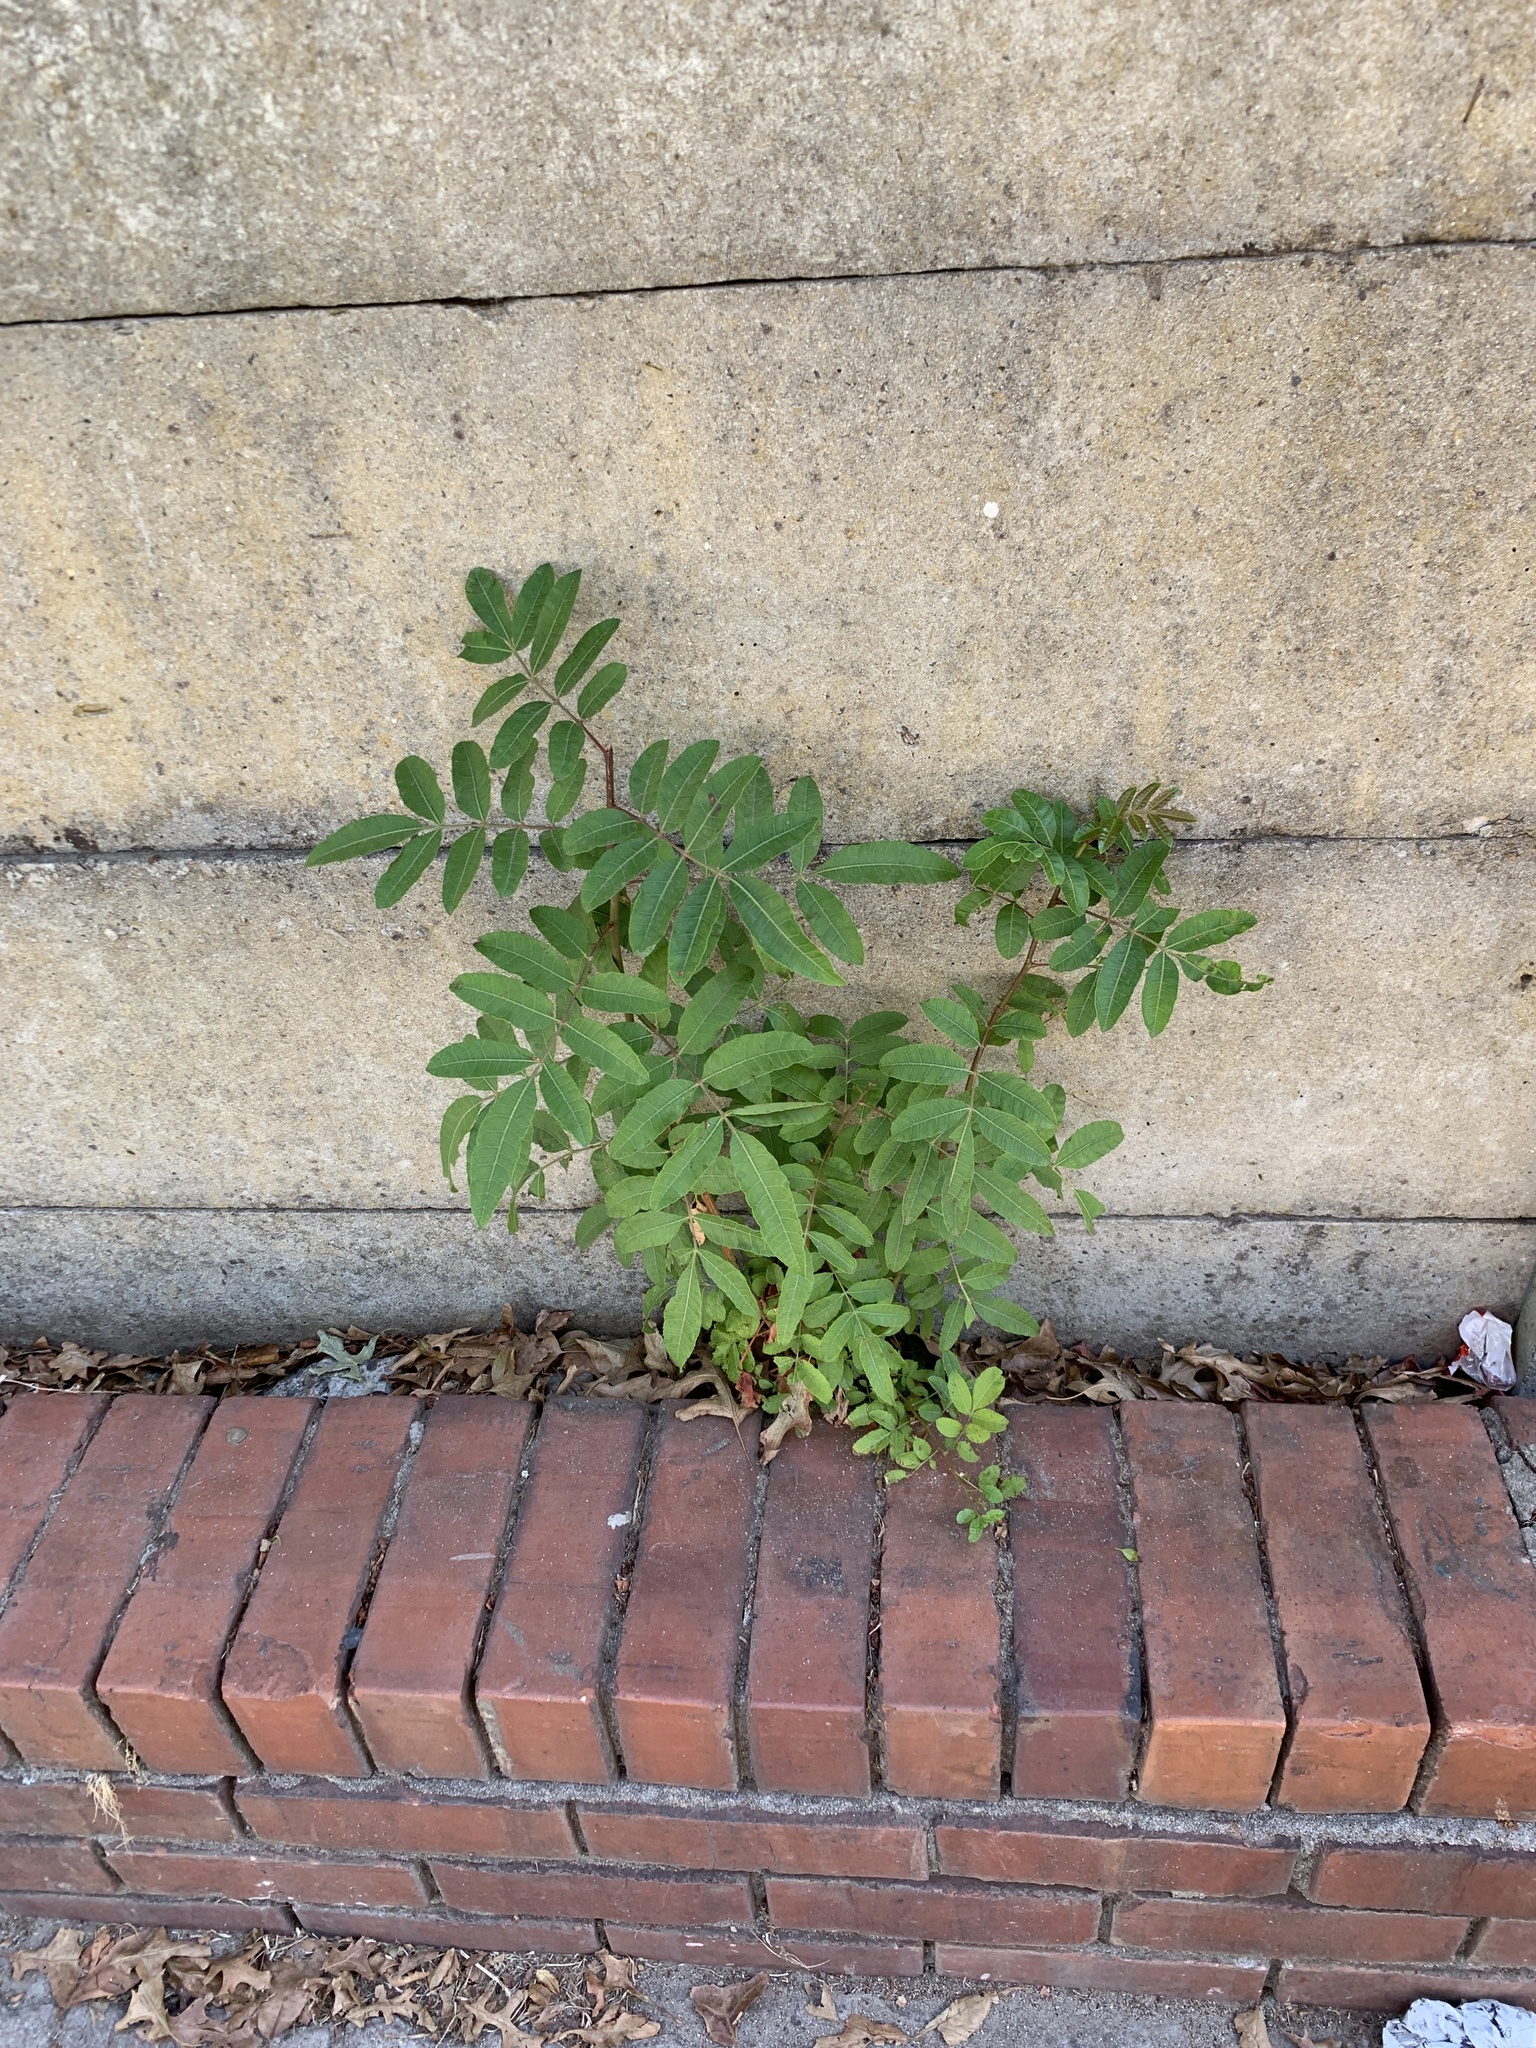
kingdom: Plantae
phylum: Tracheophyta
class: Magnoliopsida
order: Sapindales
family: Anacardiaceae
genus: Schinus
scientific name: Schinus terebinthifolia
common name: Brazilian peppertree
